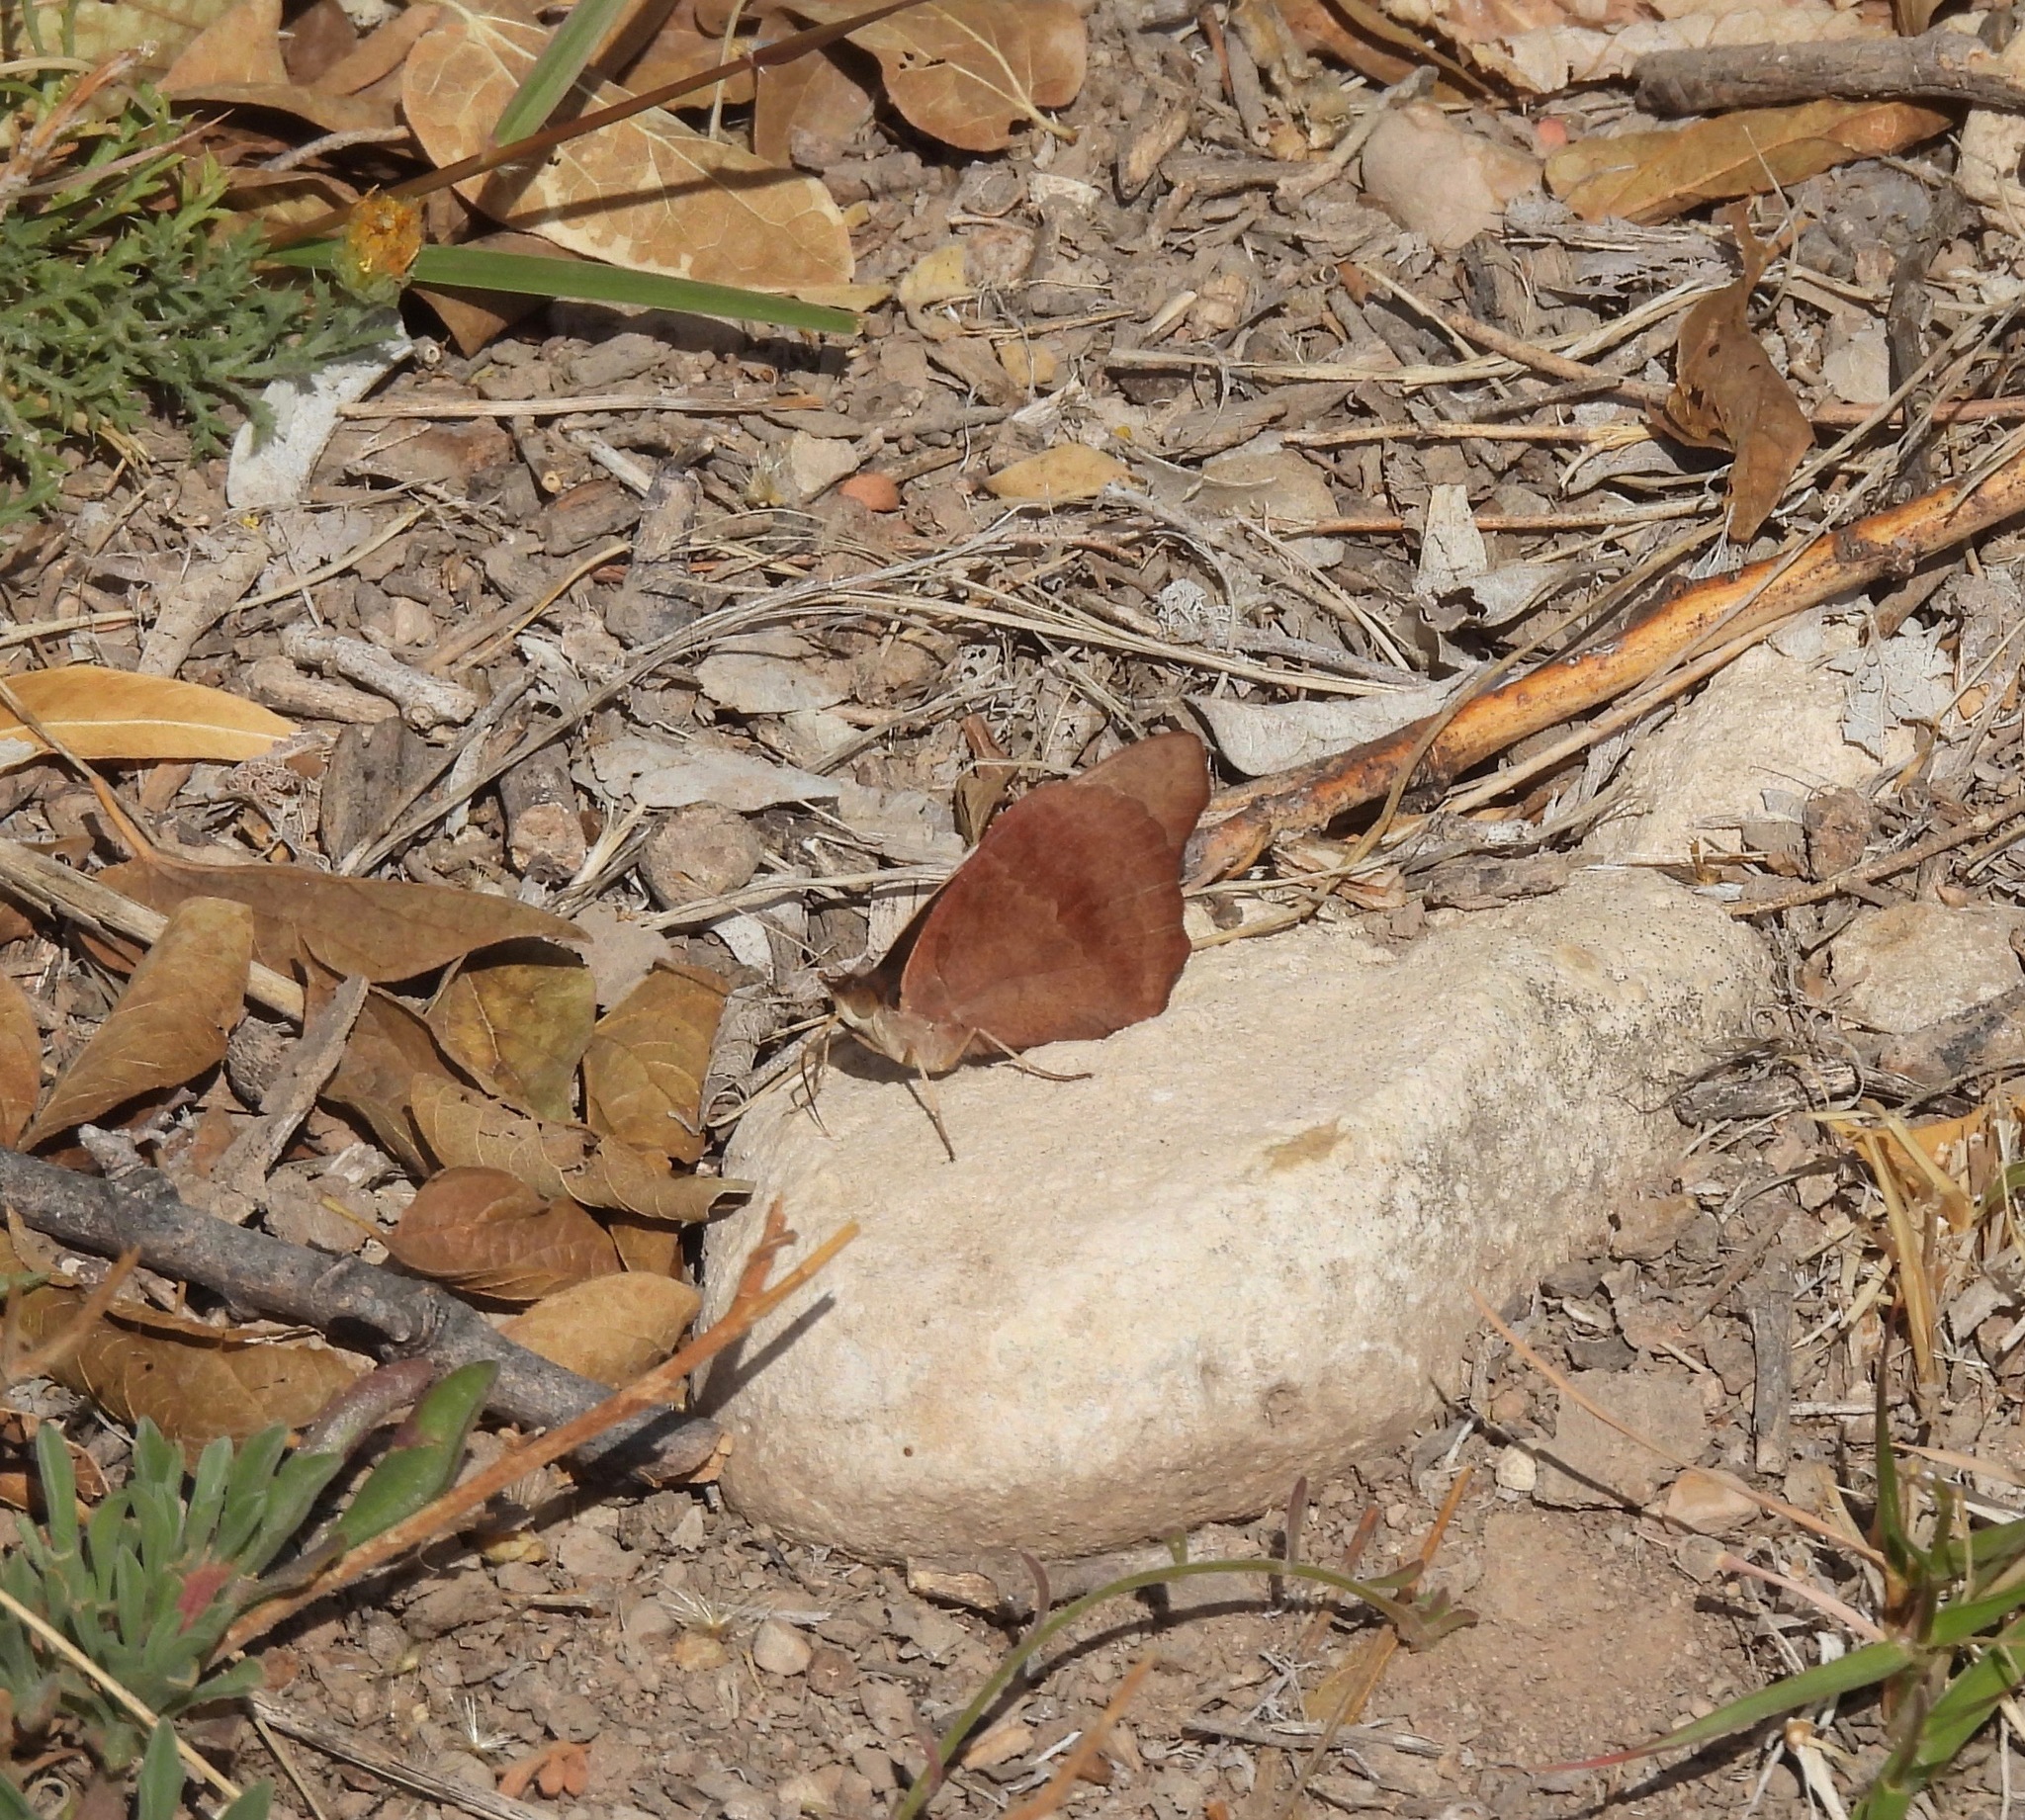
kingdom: Animalia
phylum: Arthropoda
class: Insecta
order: Lepidoptera
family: Nymphalidae
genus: Junonia
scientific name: Junonia nigrosuffusa
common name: Dark buckeye
